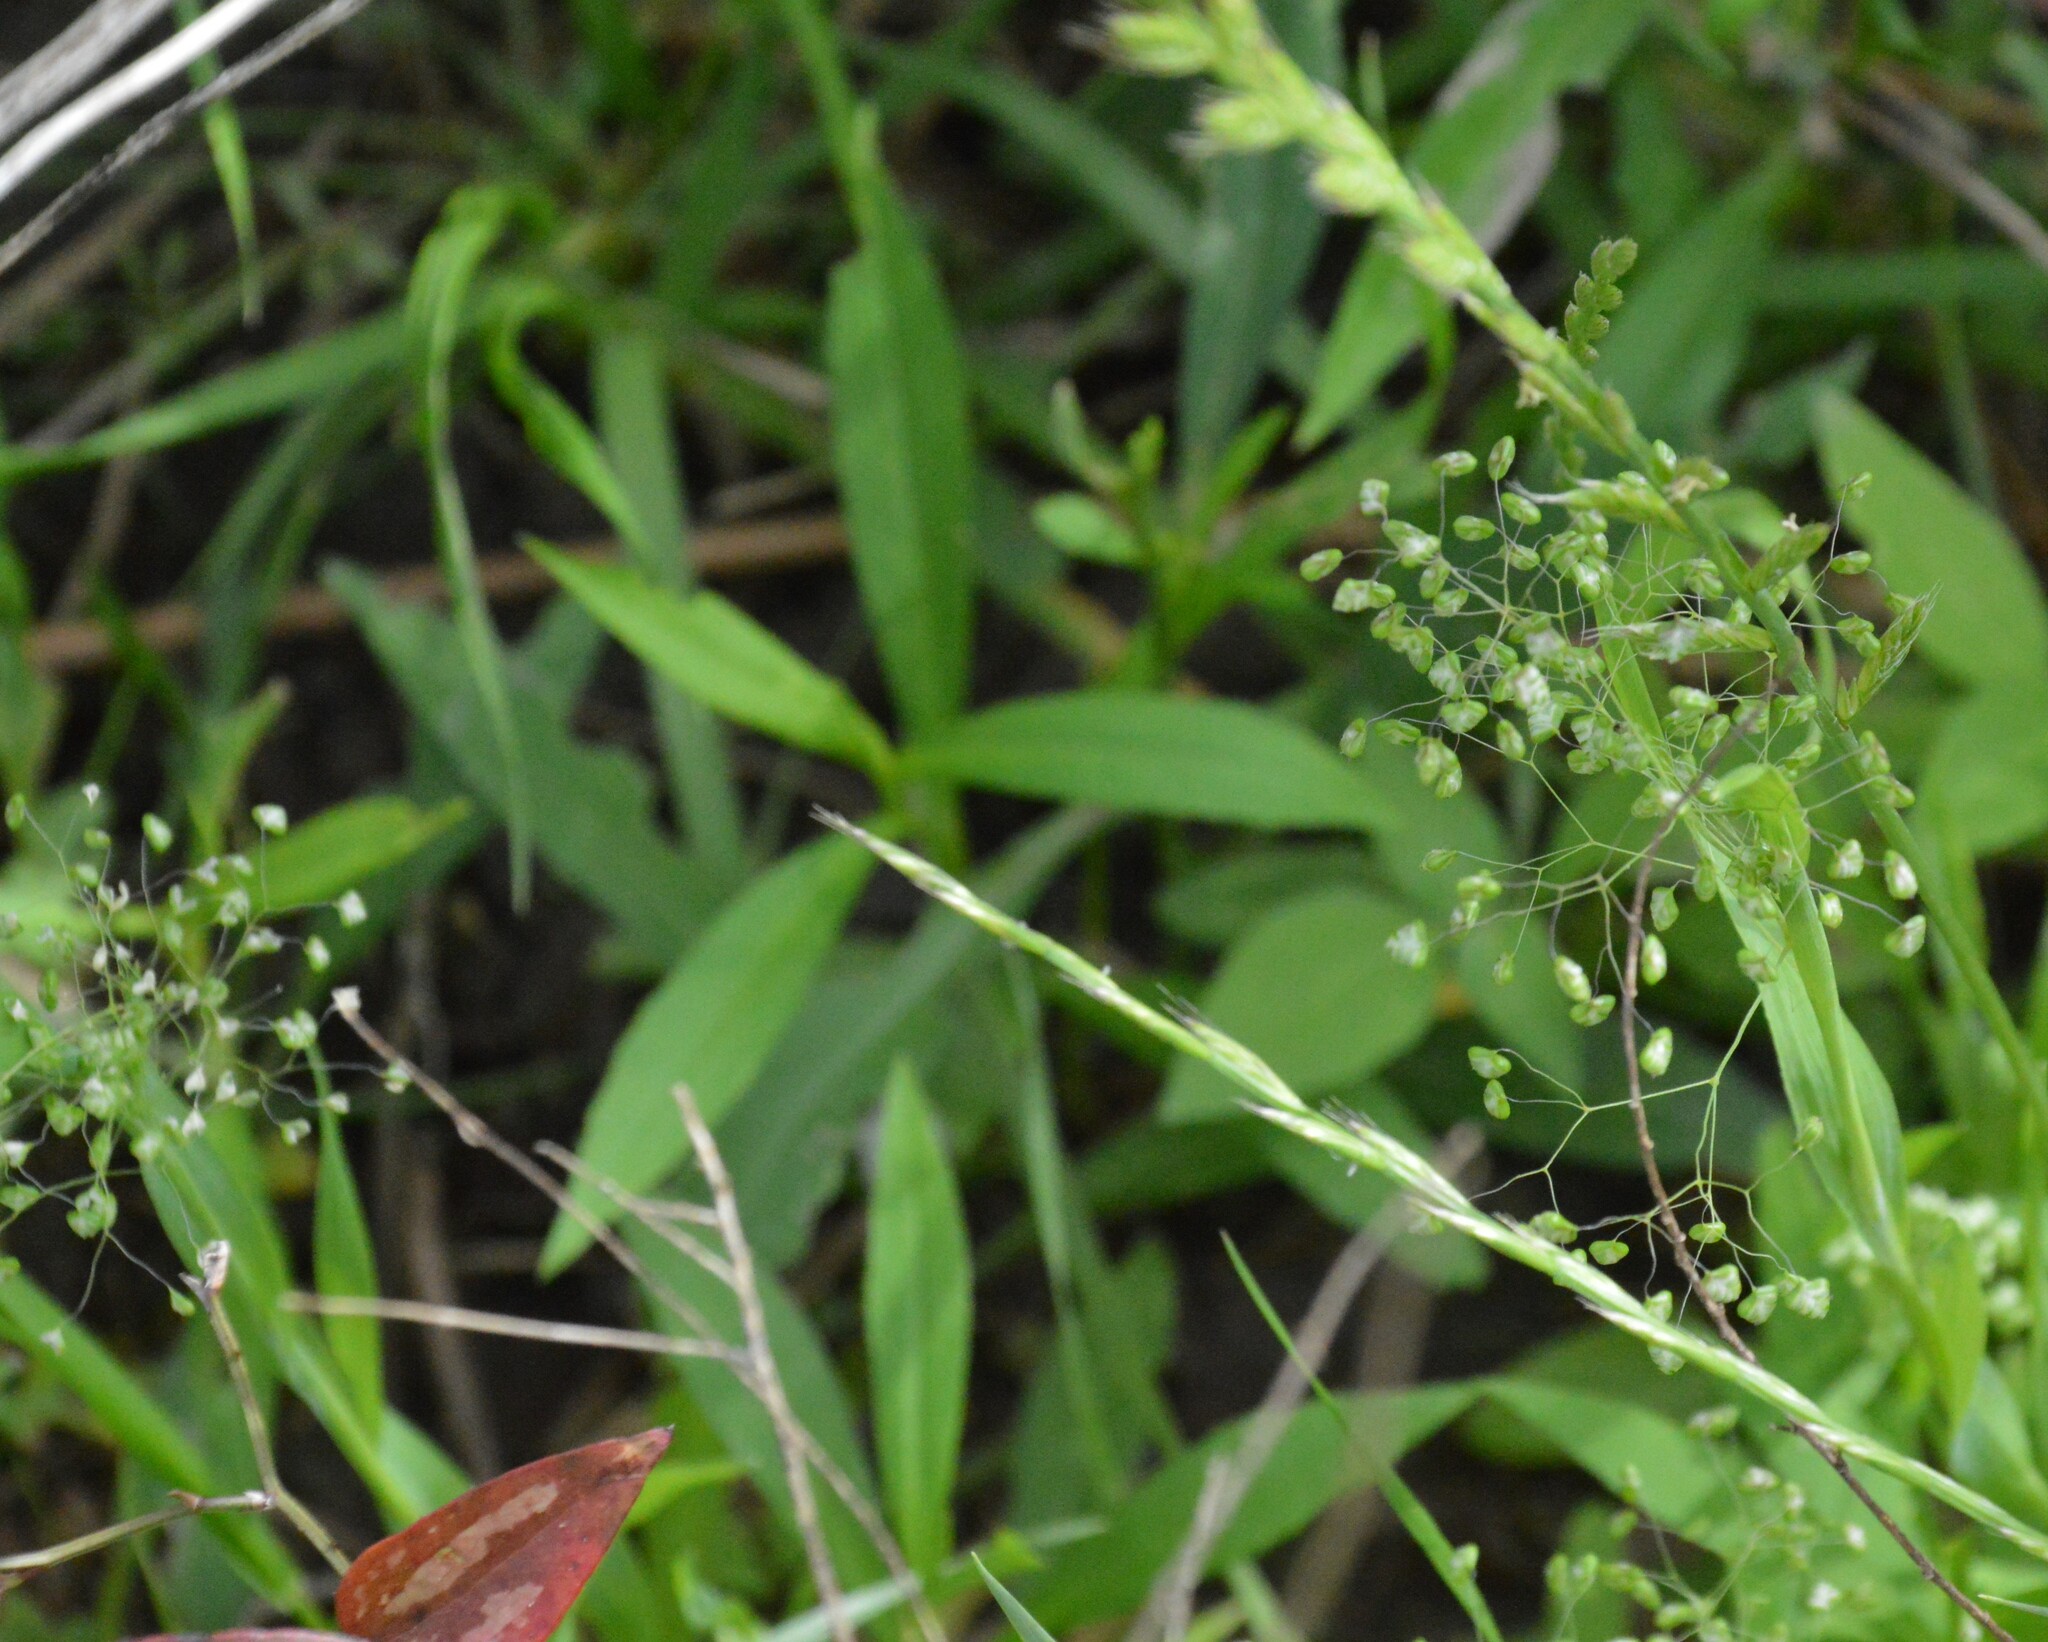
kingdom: Plantae
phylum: Tracheophyta
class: Liliopsida
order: Poales
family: Poaceae
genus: Briza
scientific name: Briza minor
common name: Lesser quaking-grass
